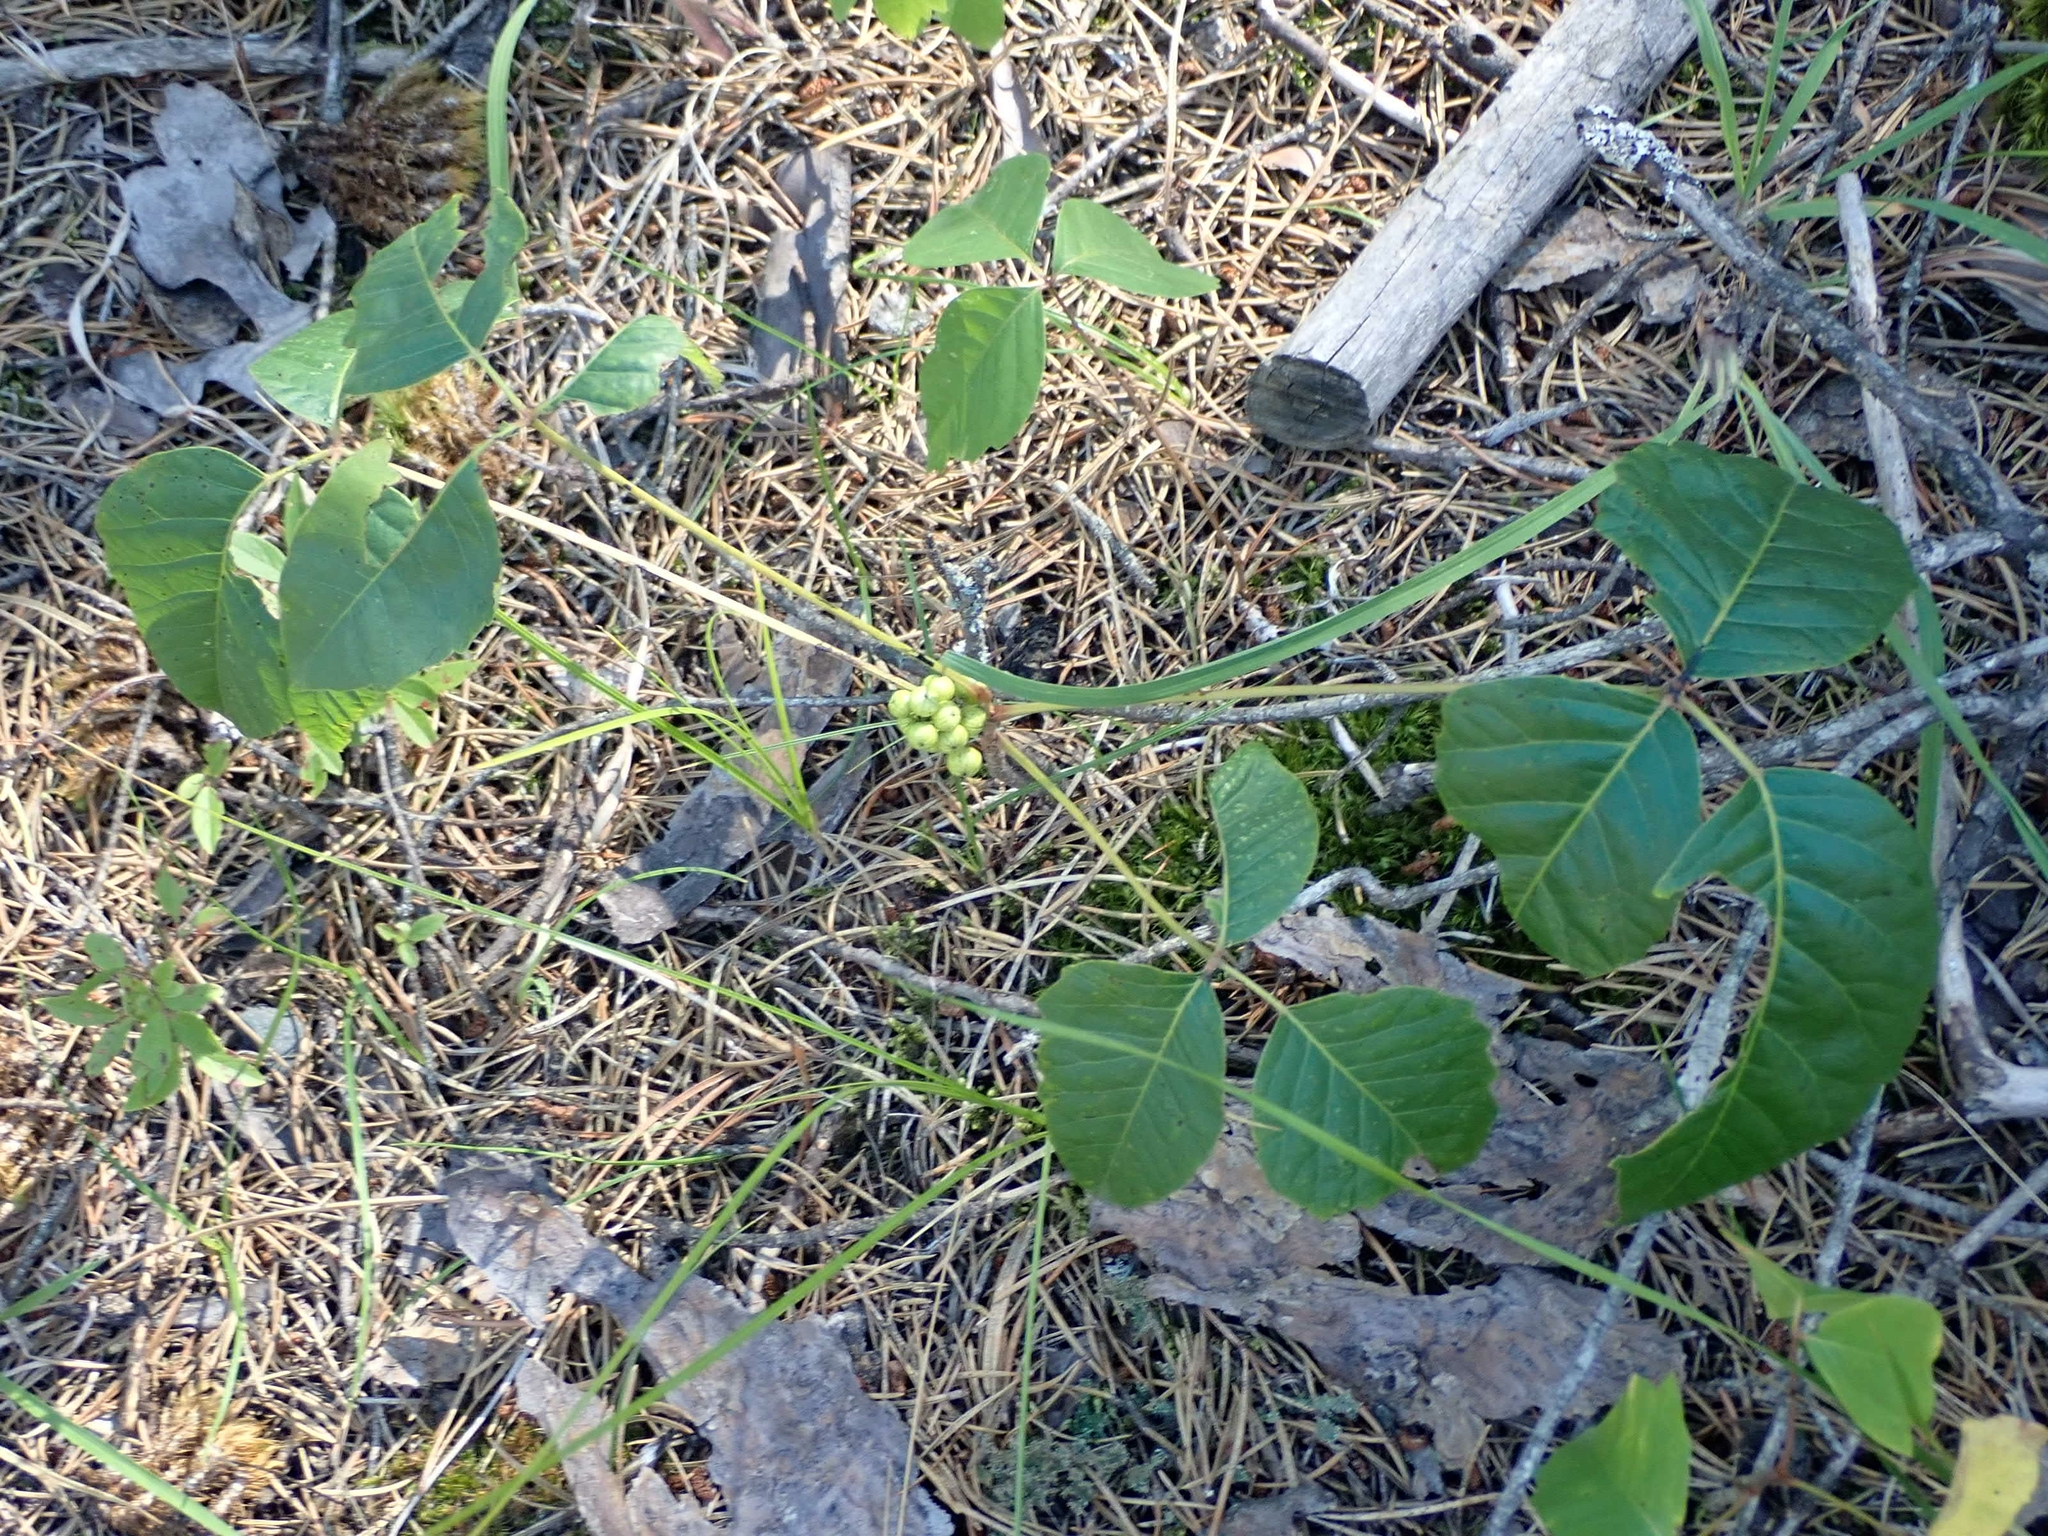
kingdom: Plantae
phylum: Tracheophyta
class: Magnoliopsida
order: Sapindales
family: Anacardiaceae
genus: Toxicodendron
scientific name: Toxicodendron rydbergii
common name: Rydberg's poison-ivy
